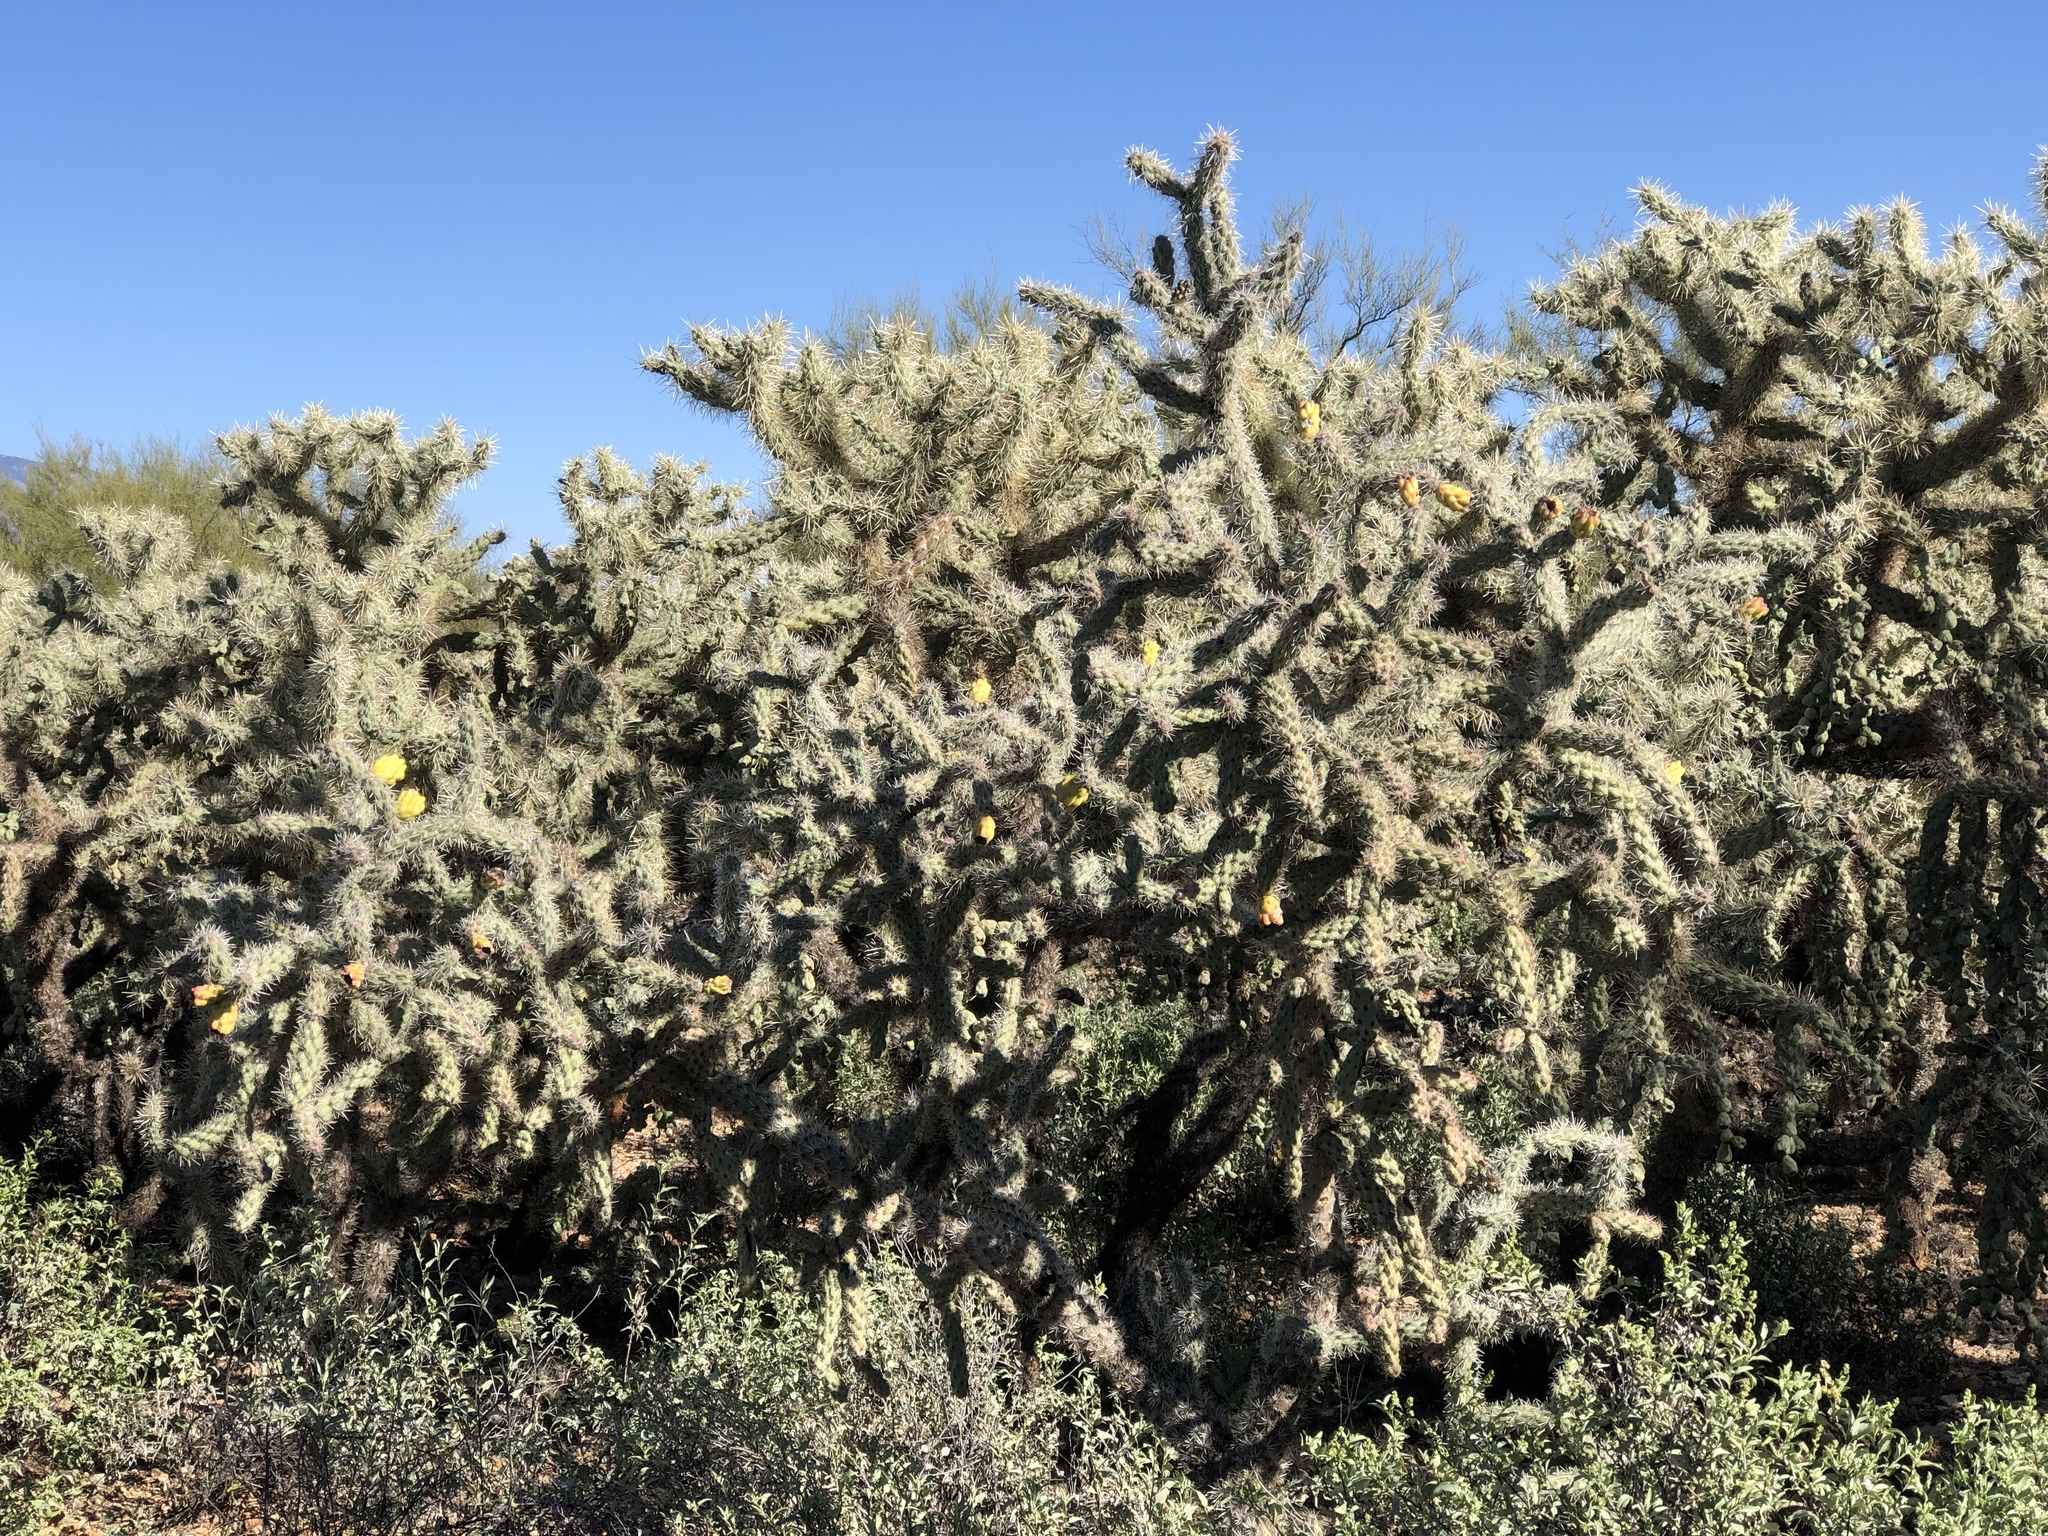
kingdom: Plantae
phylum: Tracheophyta
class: Magnoliopsida
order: Caryophyllales
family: Cactaceae
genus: Cylindropuntia
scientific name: Cylindropuntia imbricata
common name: Candelabrum cactus
